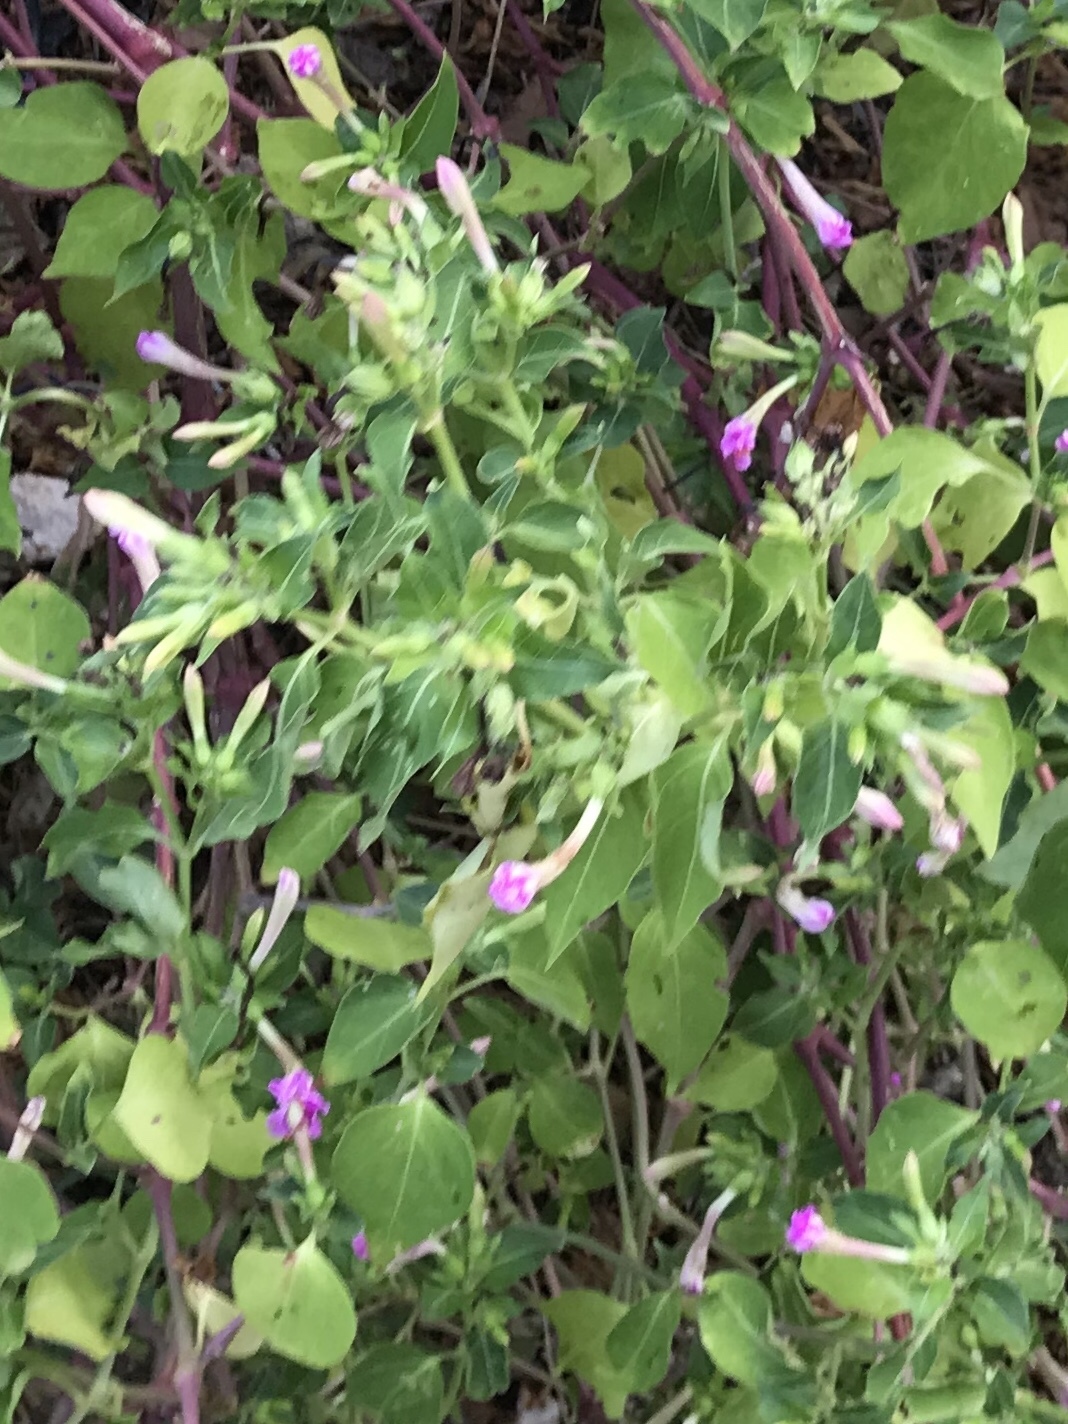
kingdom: Plantae
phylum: Tracheophyta
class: Magnoliopsida
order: Caryophyllales
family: Nyctaginaceae
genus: Mirabilis
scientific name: Mirabilis jalapa
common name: Marvel-of-peru
